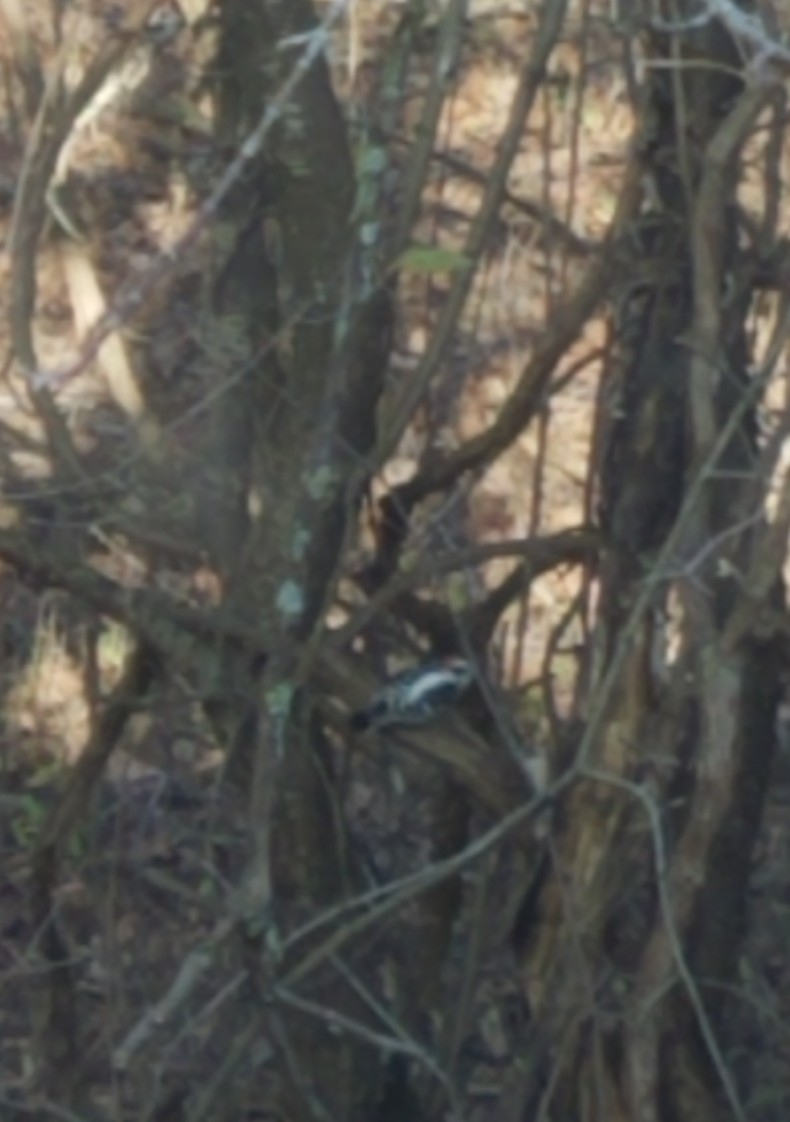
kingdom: Animalia
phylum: Chordata
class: Aves
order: Piciformes
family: Picidae
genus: Dryobates
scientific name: Dryobates pubescens
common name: Downy woodpecker
